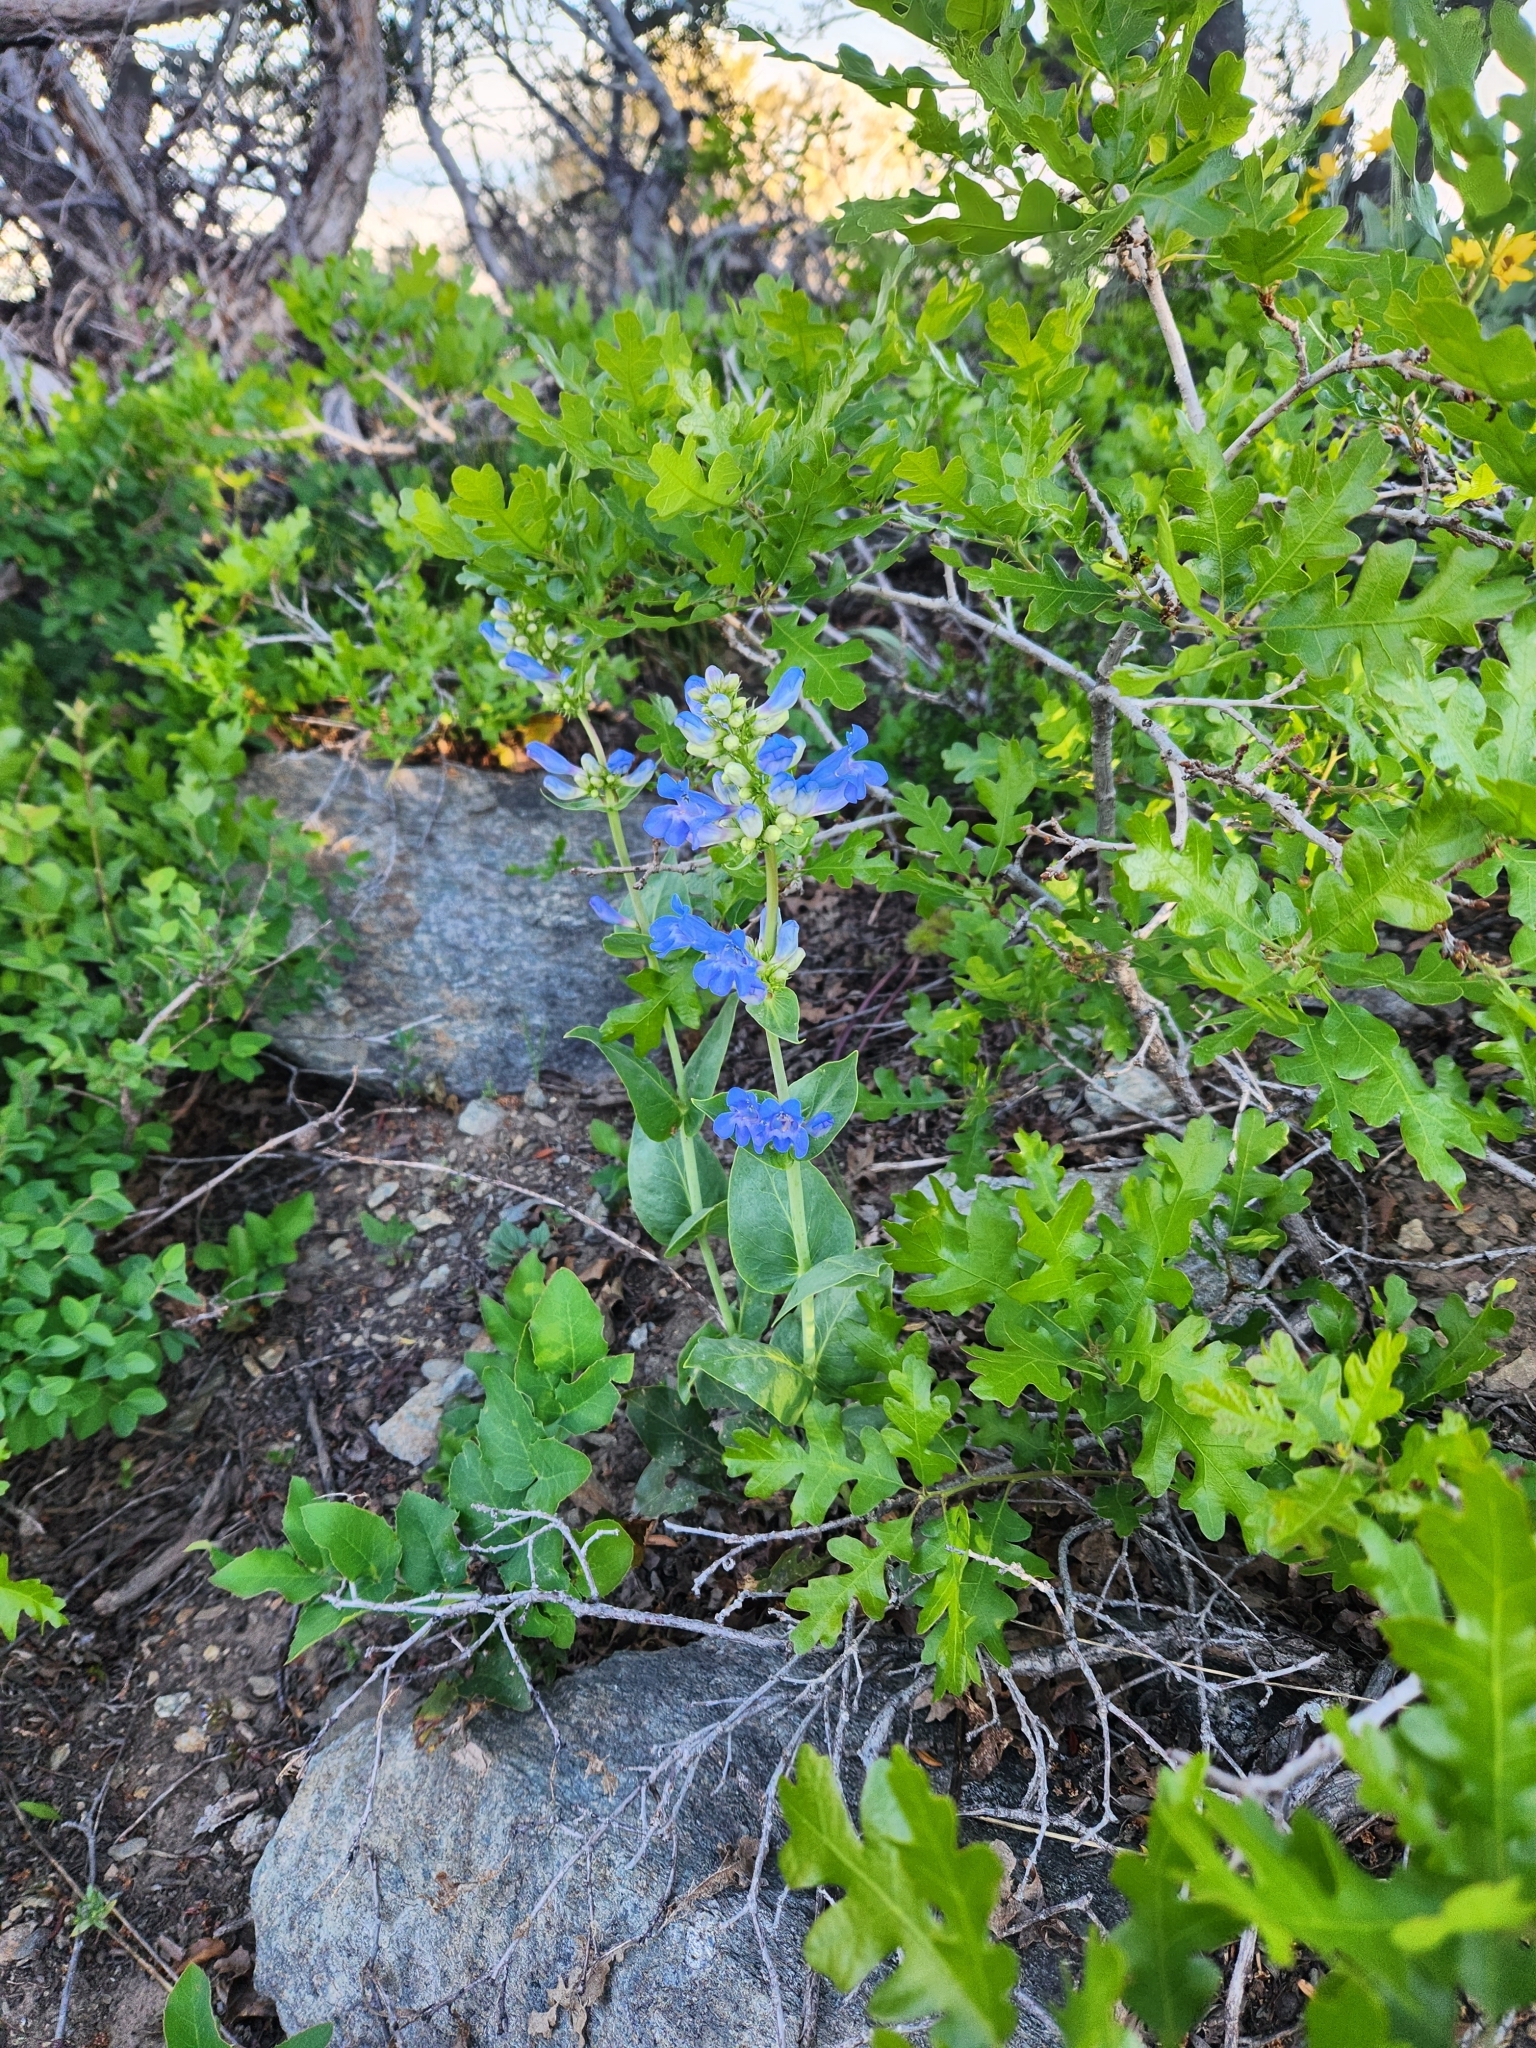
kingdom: Plantae
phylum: Tracheophyta
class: Magnoliopsida
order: Lamiales
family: Plantaginaceae
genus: Penstemon
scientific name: Penstemon cyananthus
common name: Wasatch penstemon
